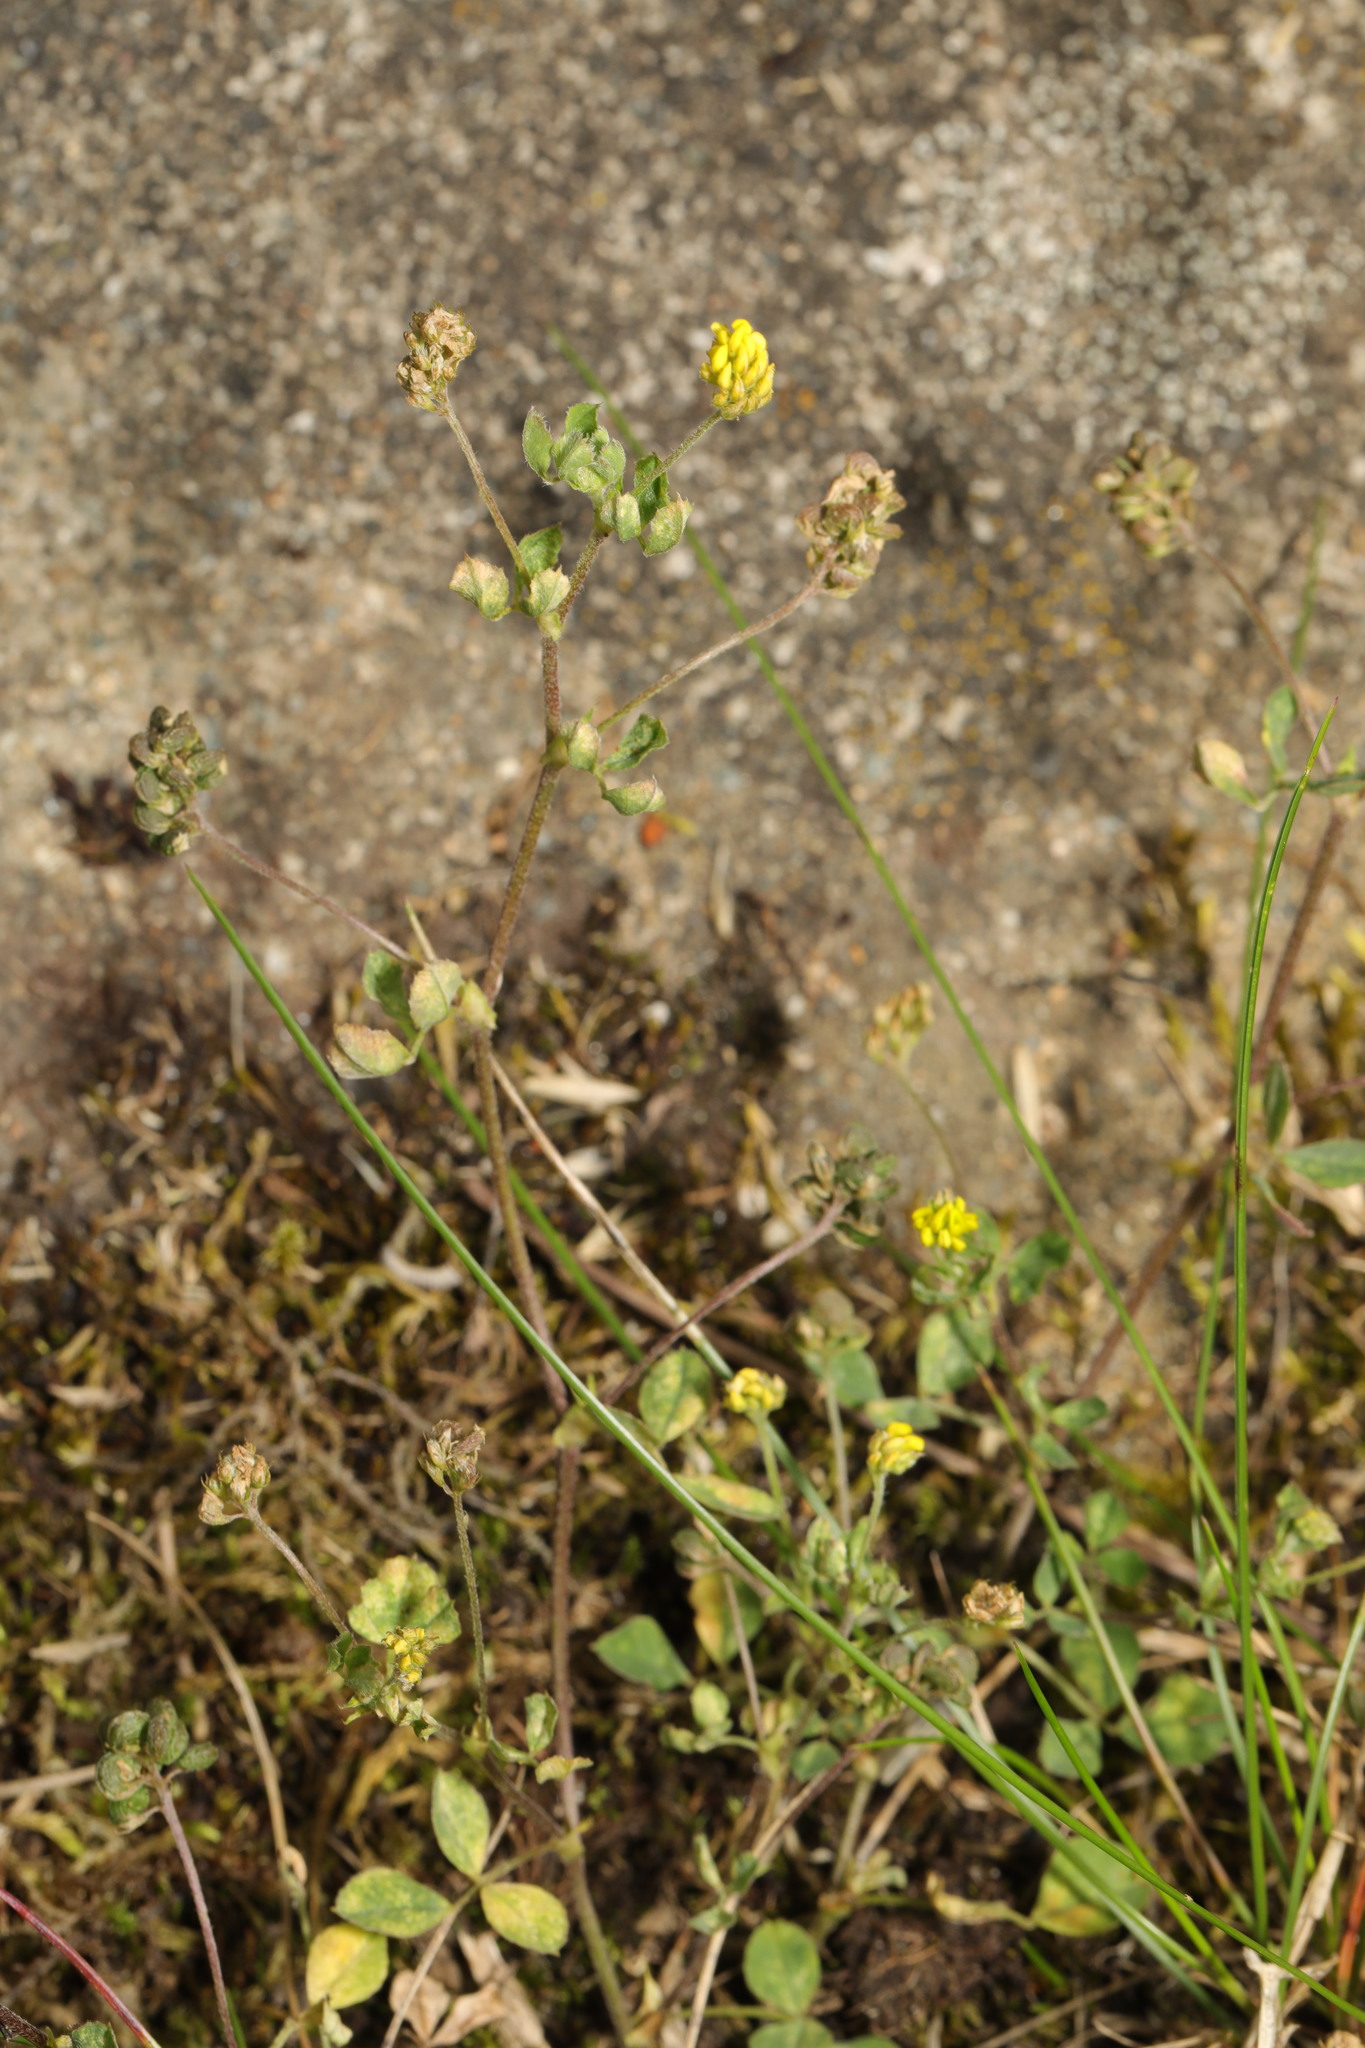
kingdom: Plantae
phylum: Tracheophyta
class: Magnoliopsida
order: Fabales
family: Fabaceae
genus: Medicago
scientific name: Medicago lupulina
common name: Black medick
